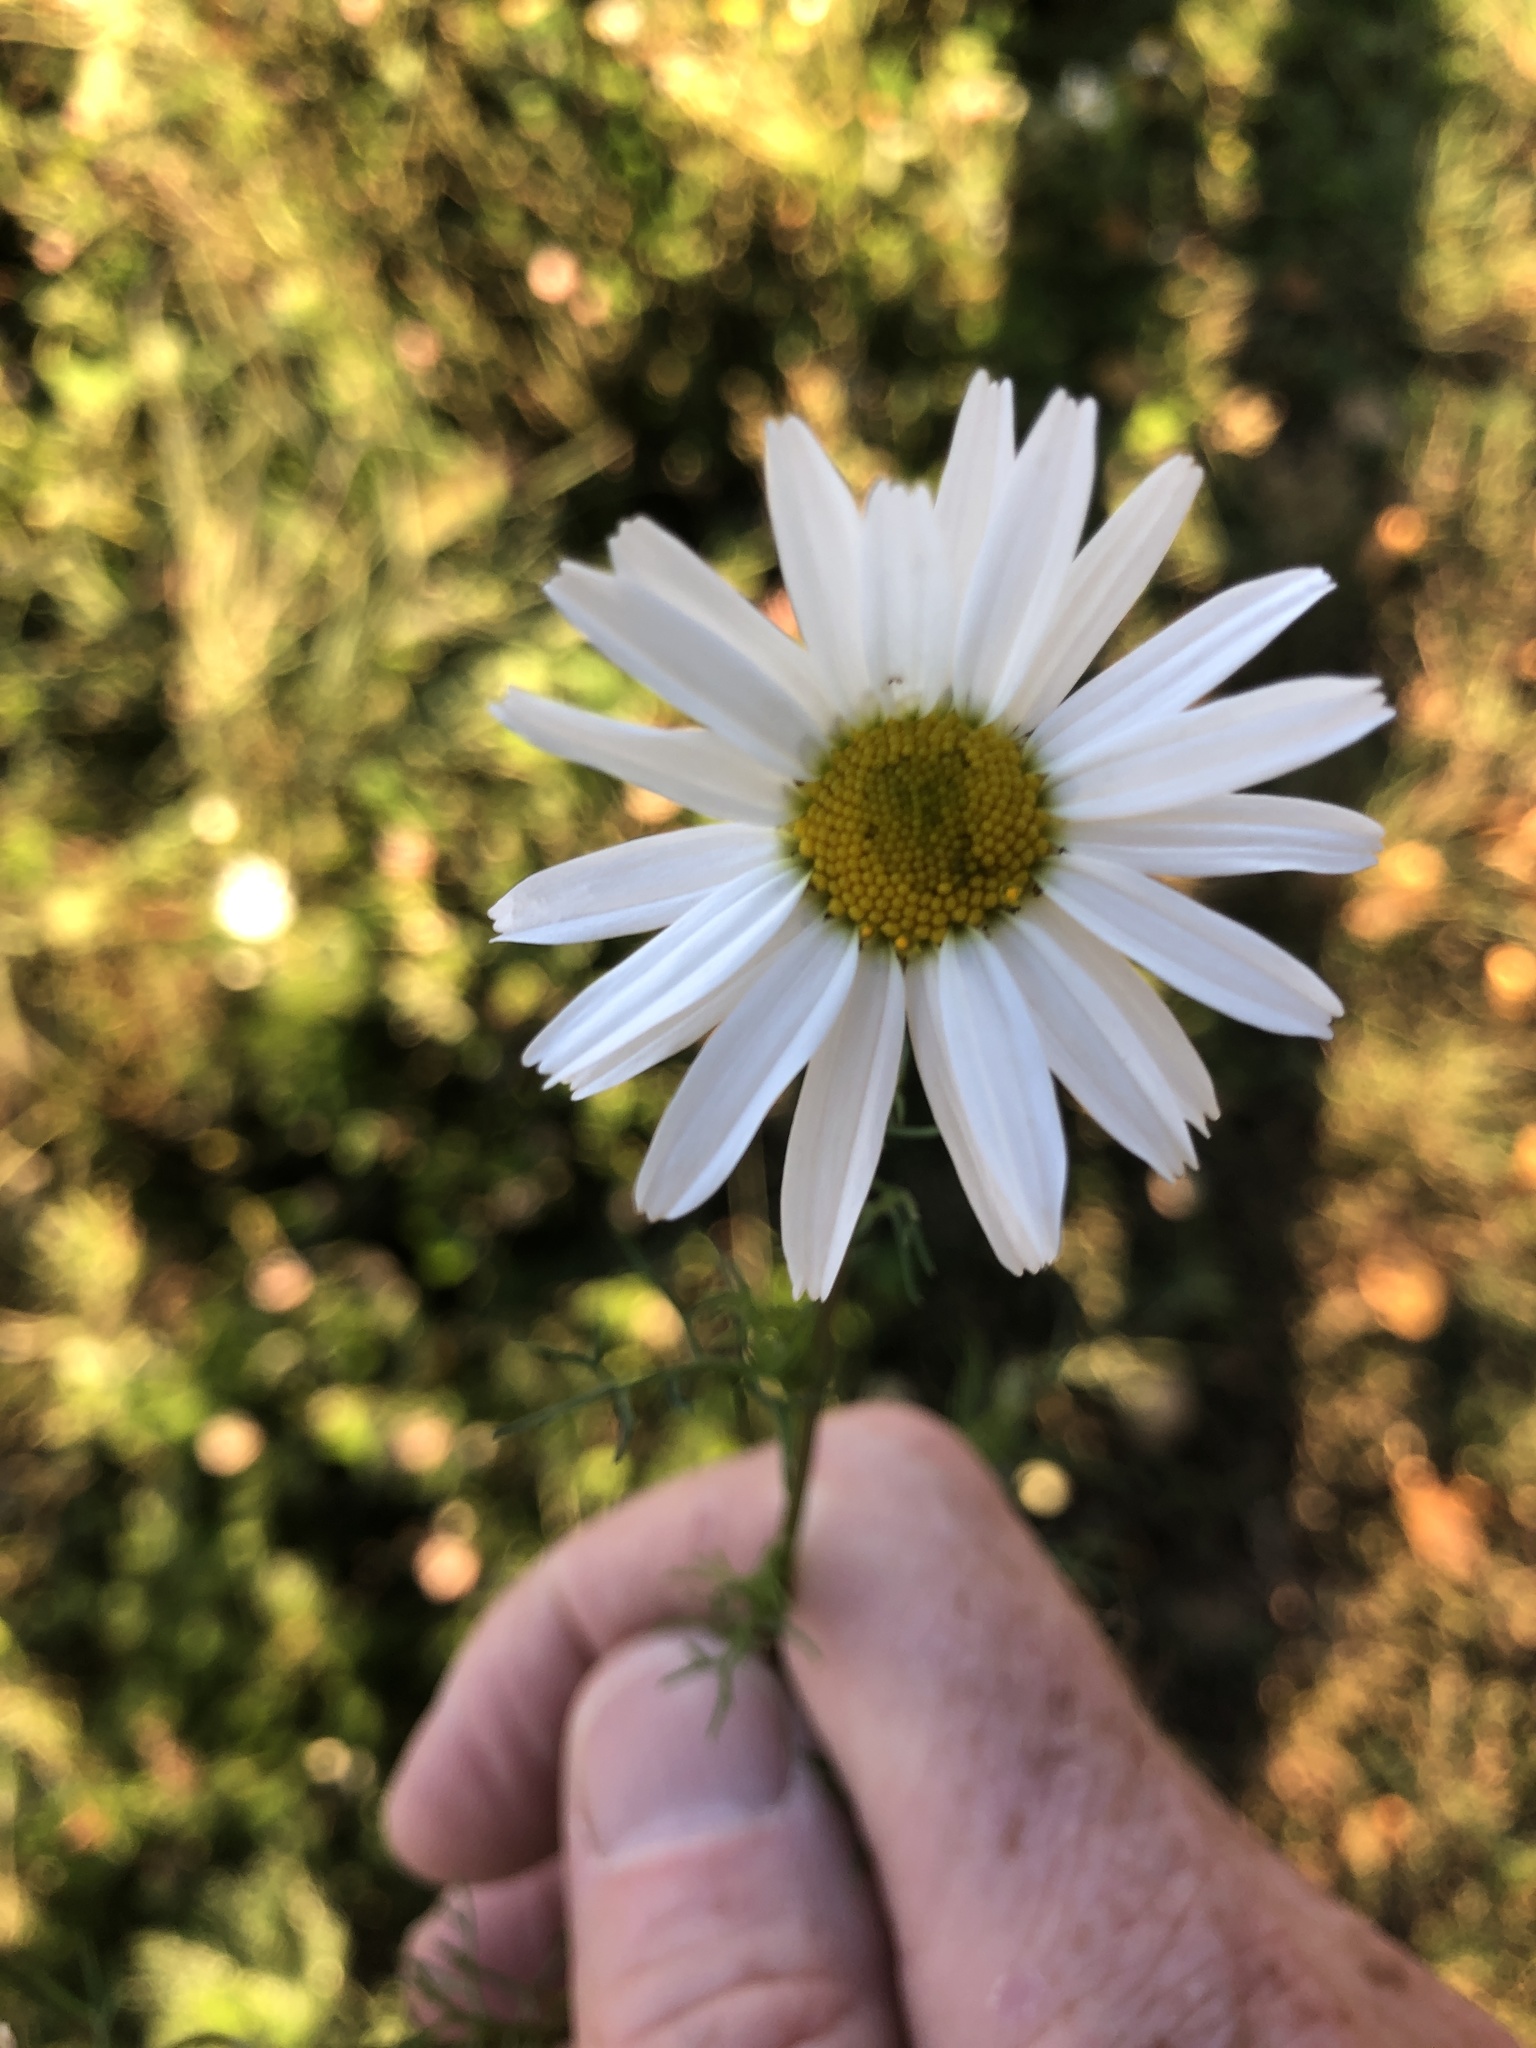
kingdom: Plantae
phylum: Tracheophyta
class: Magnoliopsida
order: Asterales
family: Asteraceae
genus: Tripleurospermum
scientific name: Tripleurospermum inodorum
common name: Scentless mayweed
